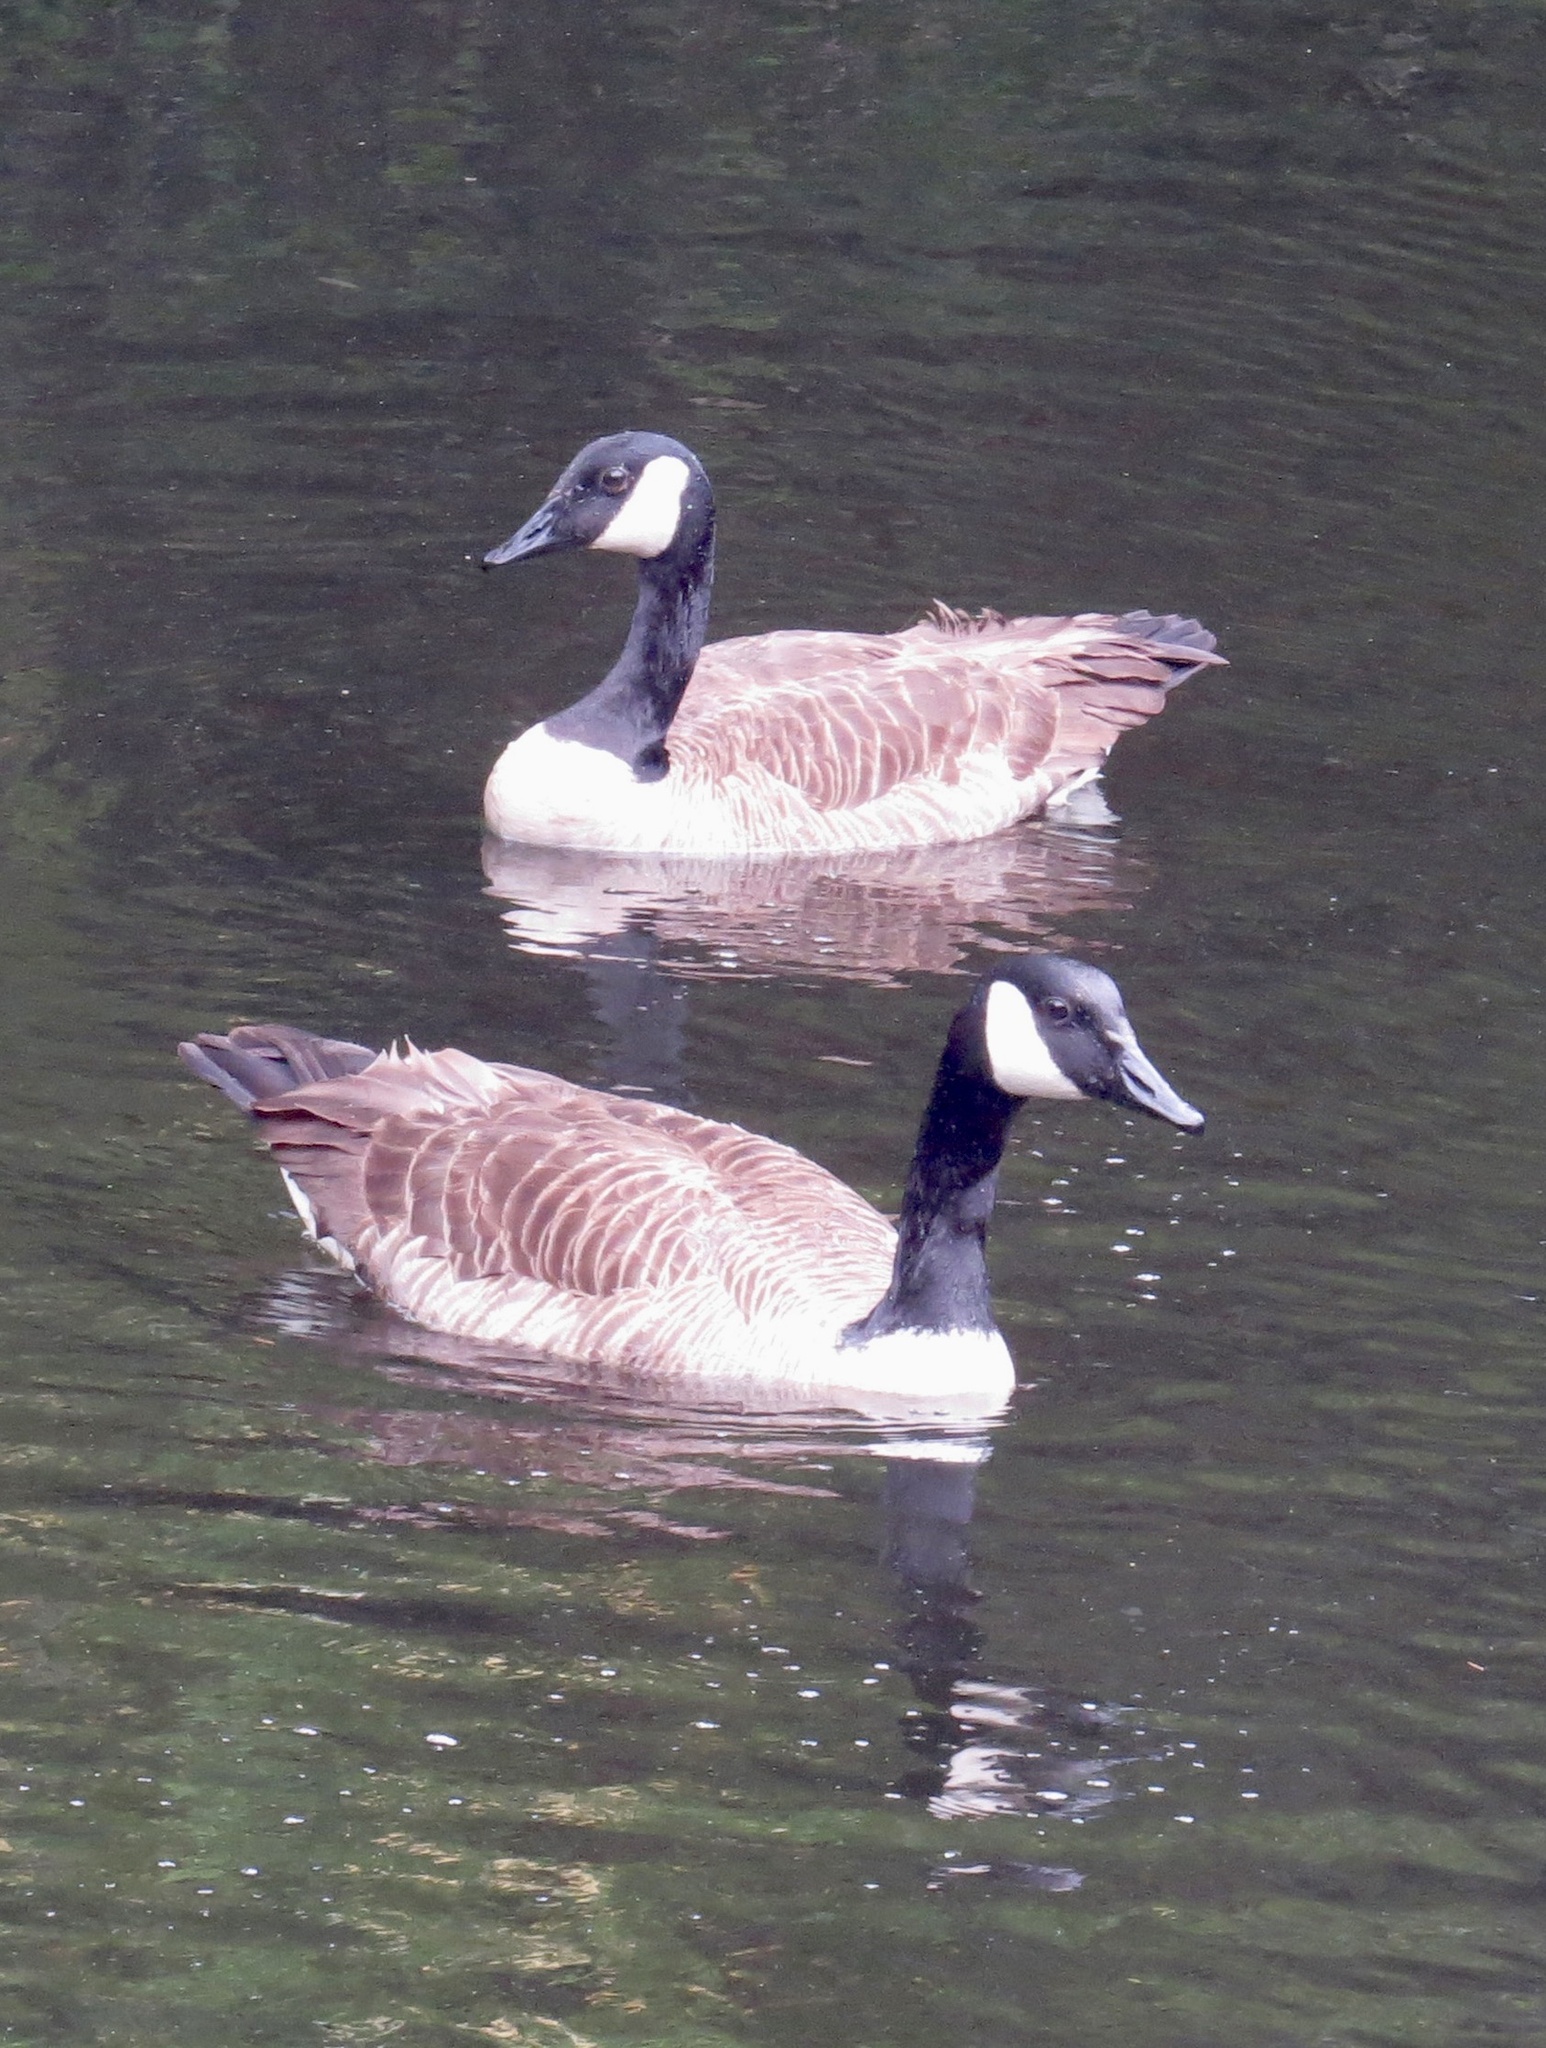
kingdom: Animalia
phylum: Chordata
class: Aves
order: Anseriformes
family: Anatidae
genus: Branta
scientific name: Branta canadensis
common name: Canada goose
